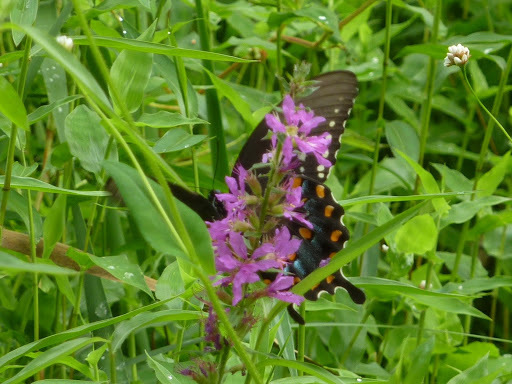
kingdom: Animalia
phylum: Arthropoda
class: Insecta
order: Lepidoptera
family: Papilionidae
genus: Papilio
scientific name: Papilio troilus
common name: Spicebush swallowtail
